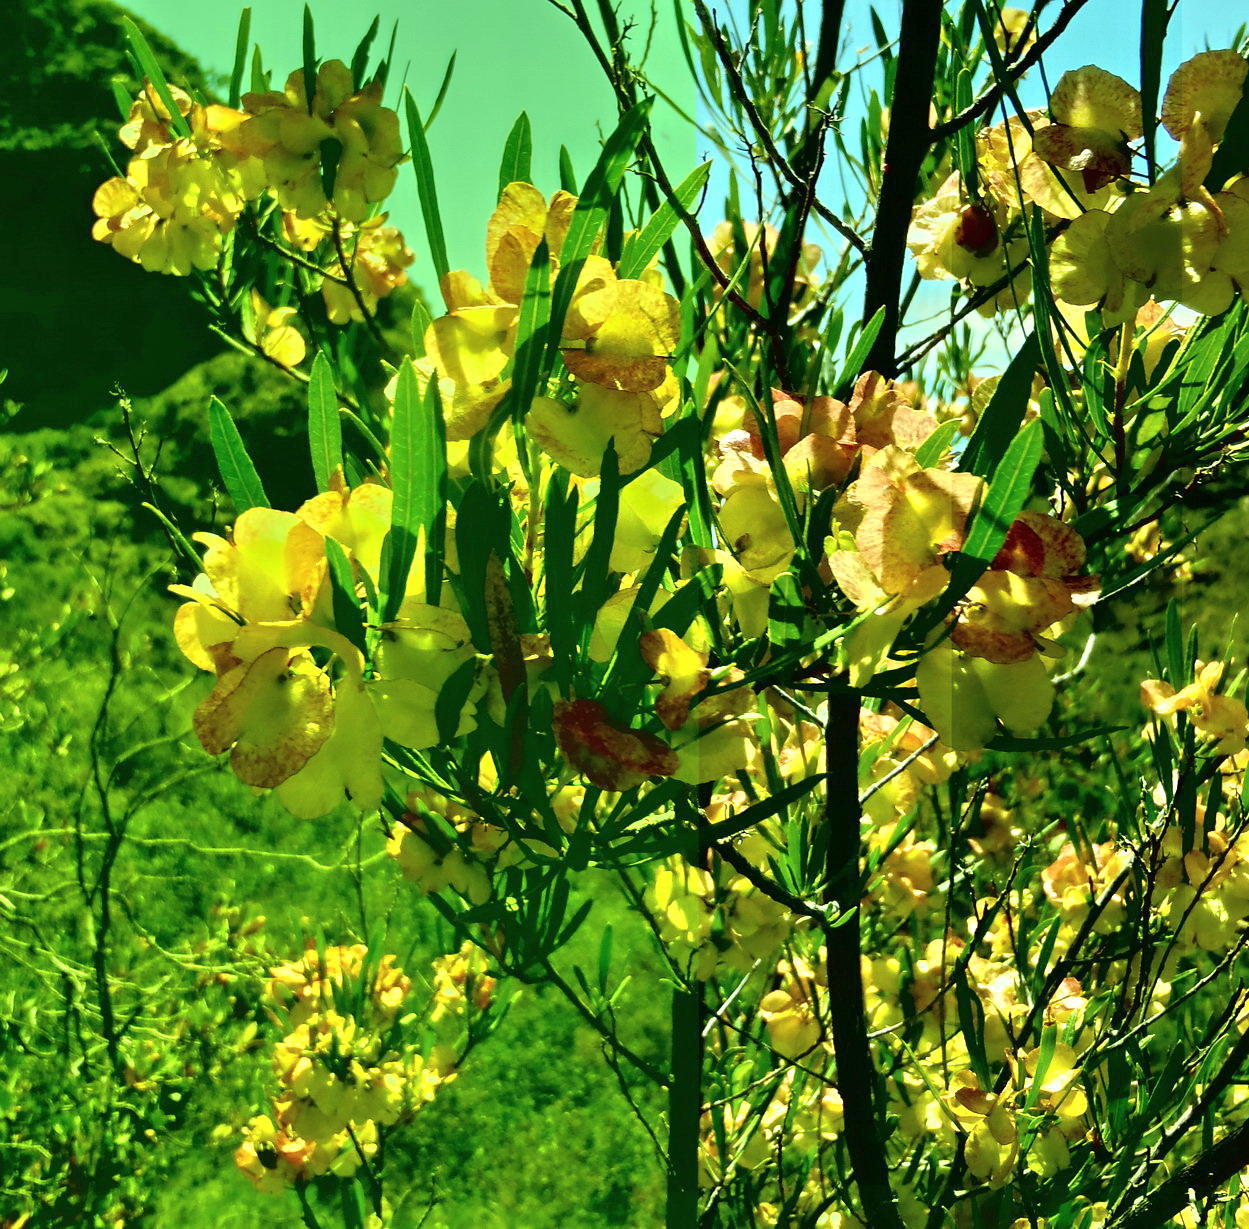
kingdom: Plantae
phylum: Tracheophyta
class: Magnoliopsida
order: Sapindales
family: Sapindaceae
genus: Dodonaea
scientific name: Dodonaea viscosa
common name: Hopbush
